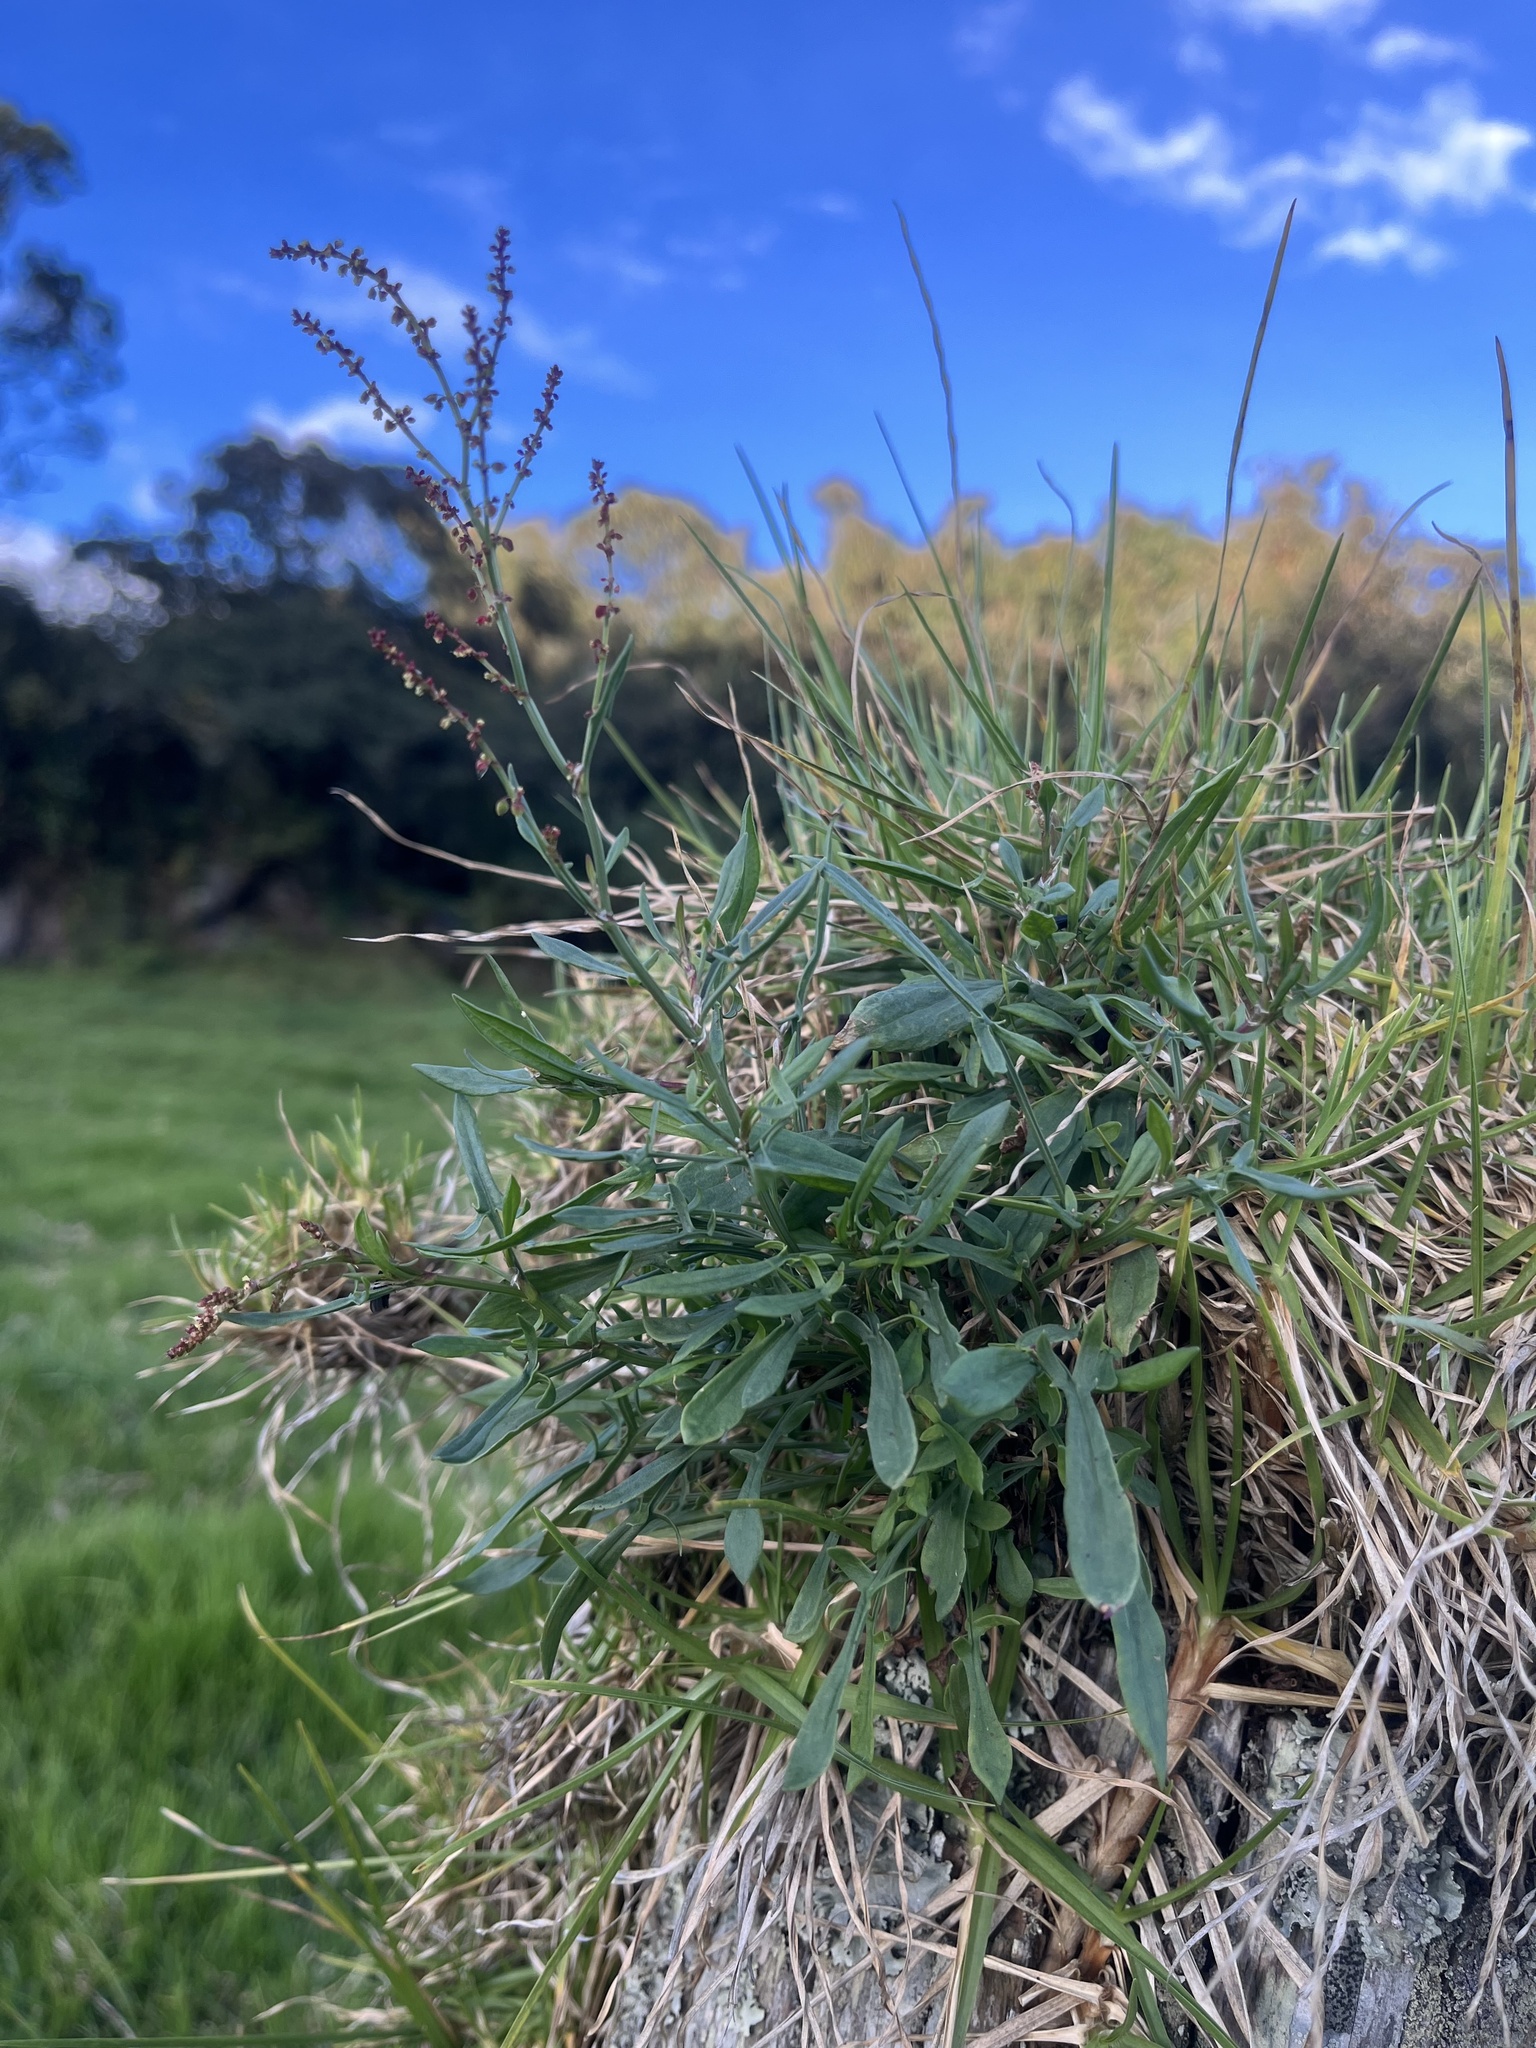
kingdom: Plantae
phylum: Tracheophyta
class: Magnoliopsida
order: Caryophyllales
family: Polygonaceae
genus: Rumex
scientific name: Rumex acetosella
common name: Common sheep sorrel
